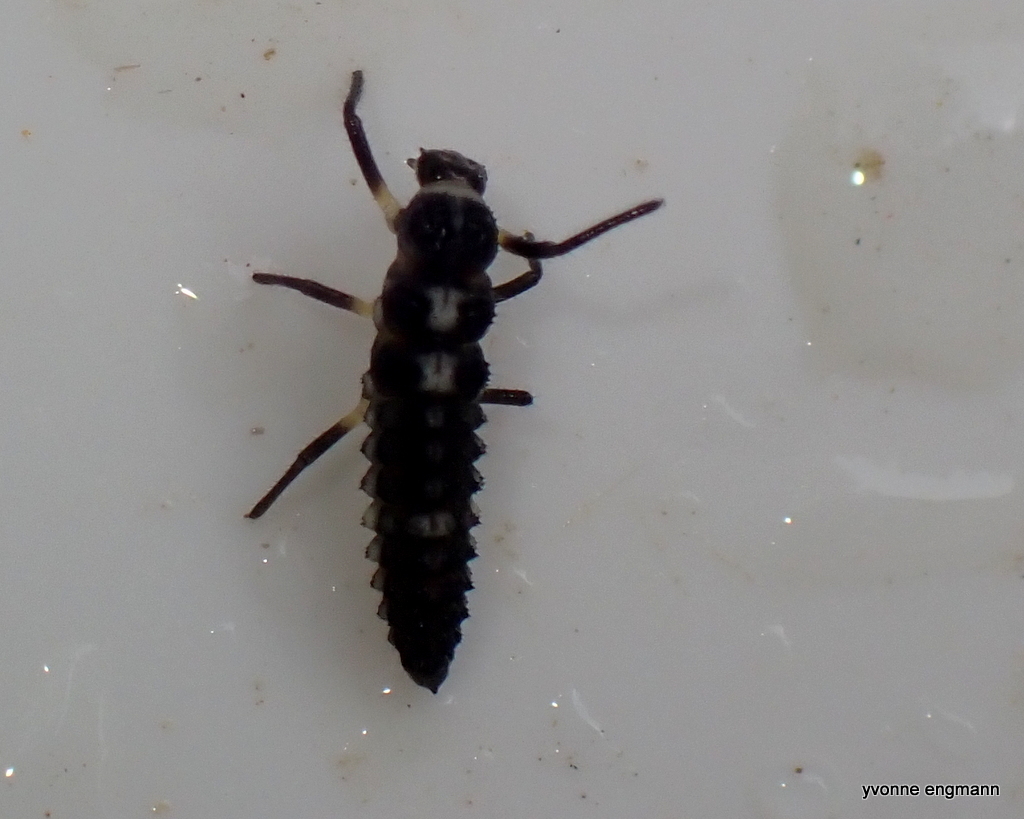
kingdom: Animalia
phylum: Arthropoda
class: Insecta
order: Coleoptera
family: Coccinellidae
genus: Propylaea
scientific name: Propylaea quatuordecimpunctata
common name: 14-spotted ladybird beetle
